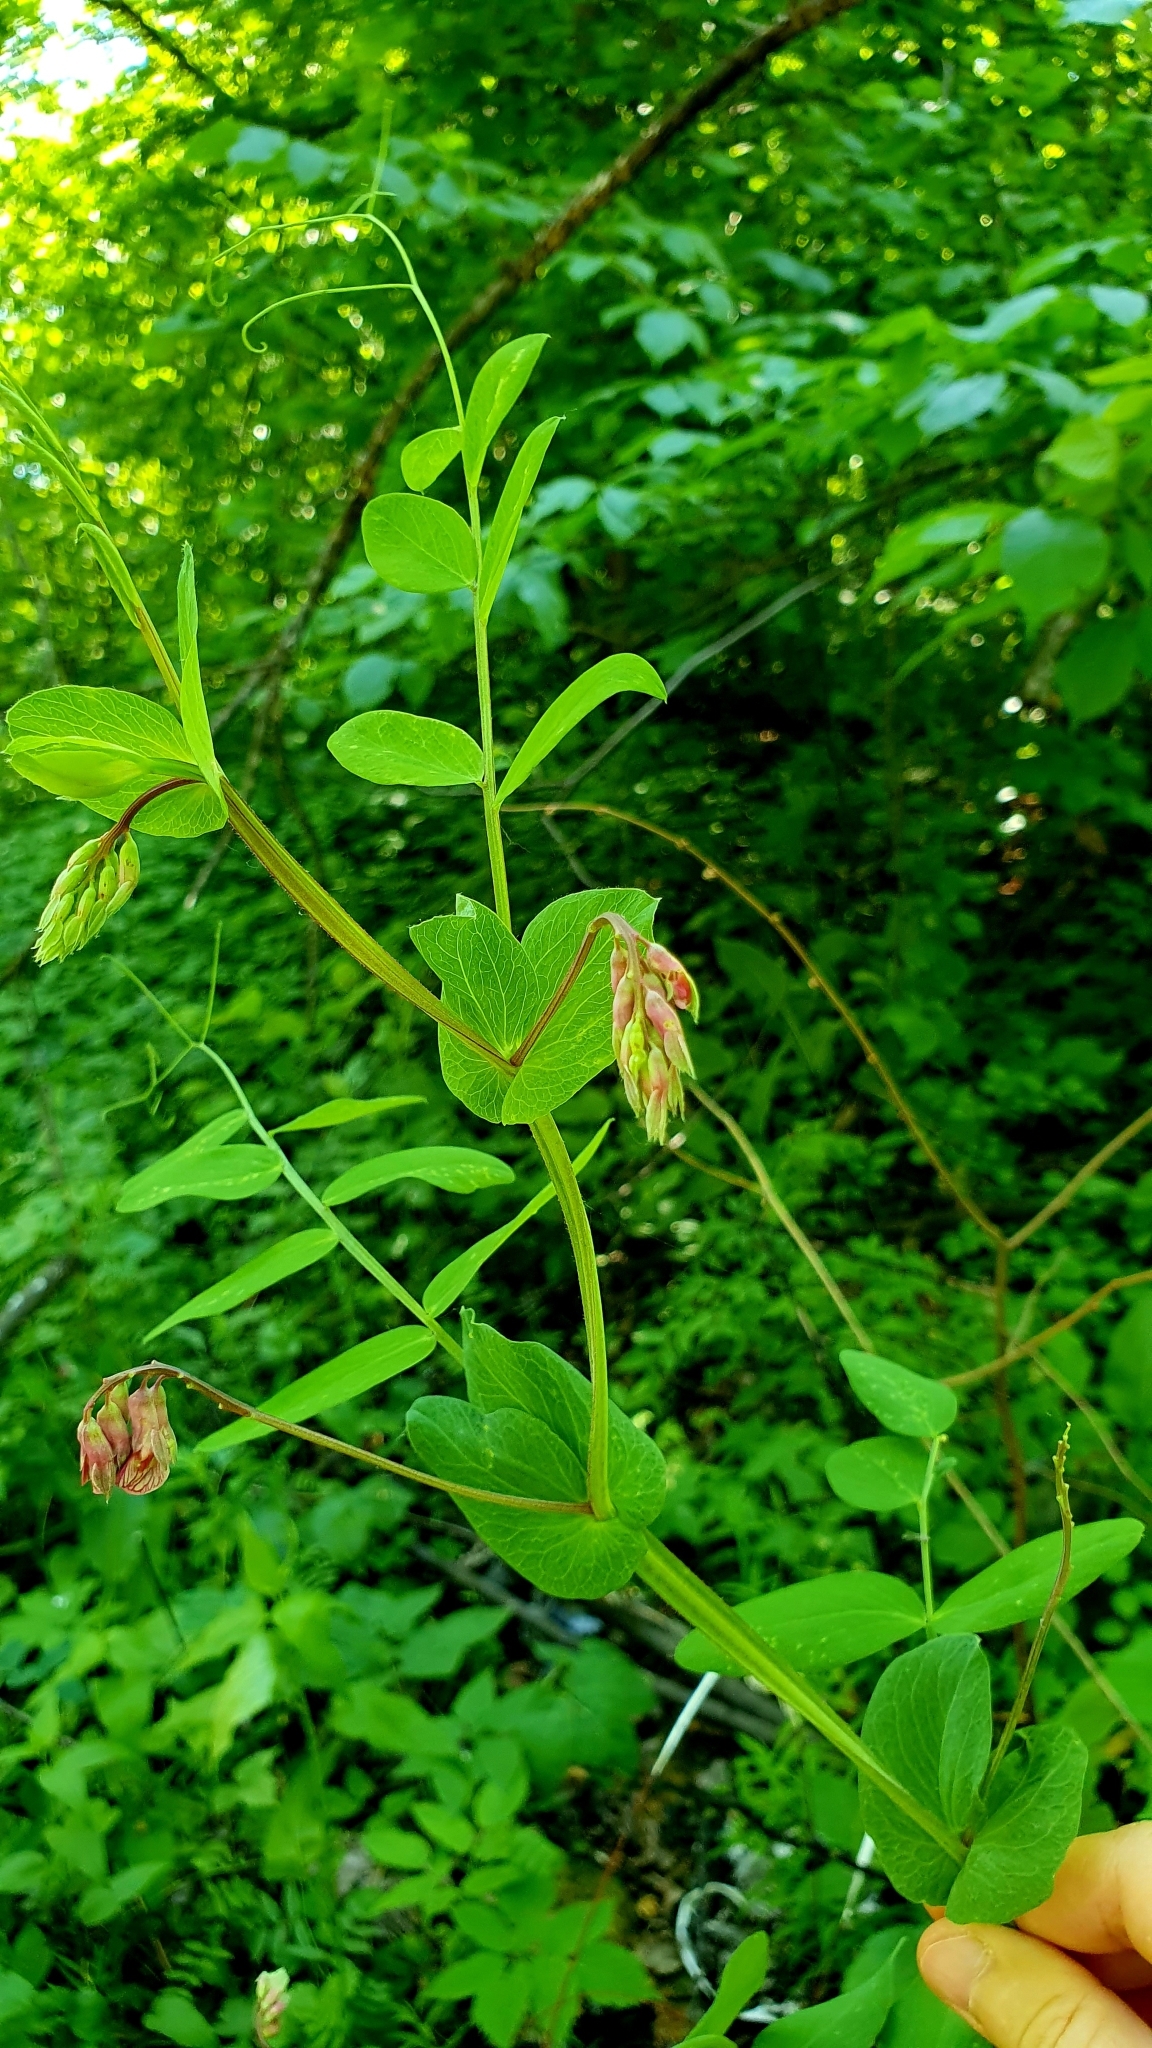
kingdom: Plantae
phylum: Tracheophyta
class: Magnoliopsida
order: Fabales
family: Fabaceae
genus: Lathyrus
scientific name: Lathyrus pisiformis
